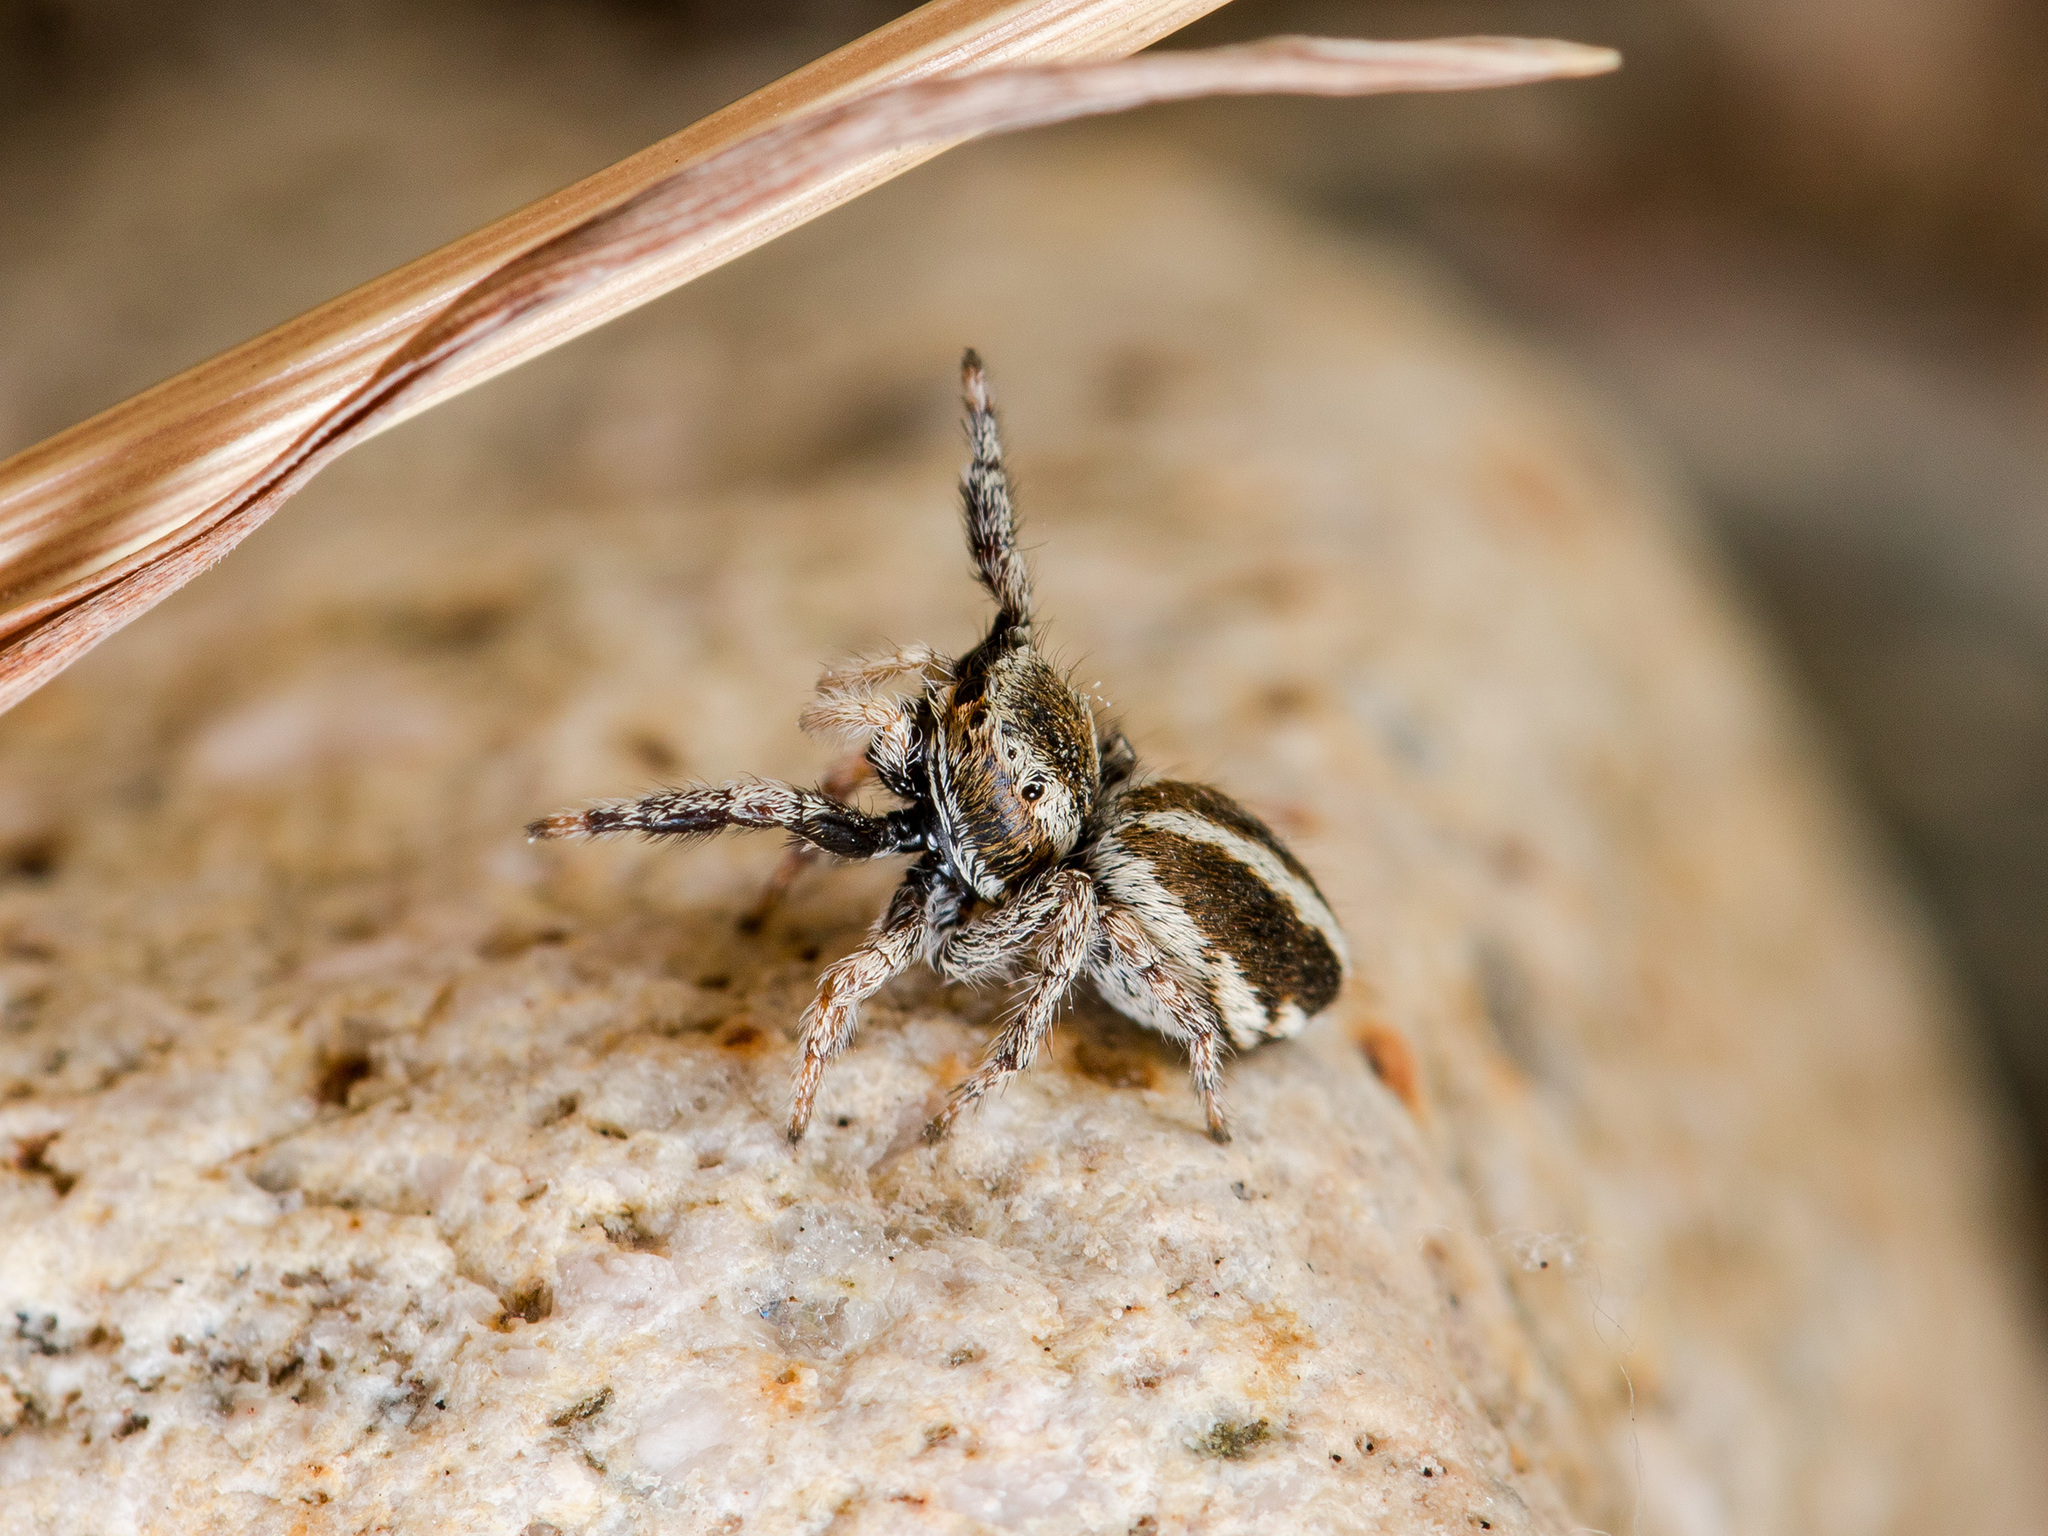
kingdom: Animalia
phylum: Arthropoda
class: Arachnida
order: Araneae
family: Salticidae
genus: Pellenes
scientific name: Pellenes epularis
